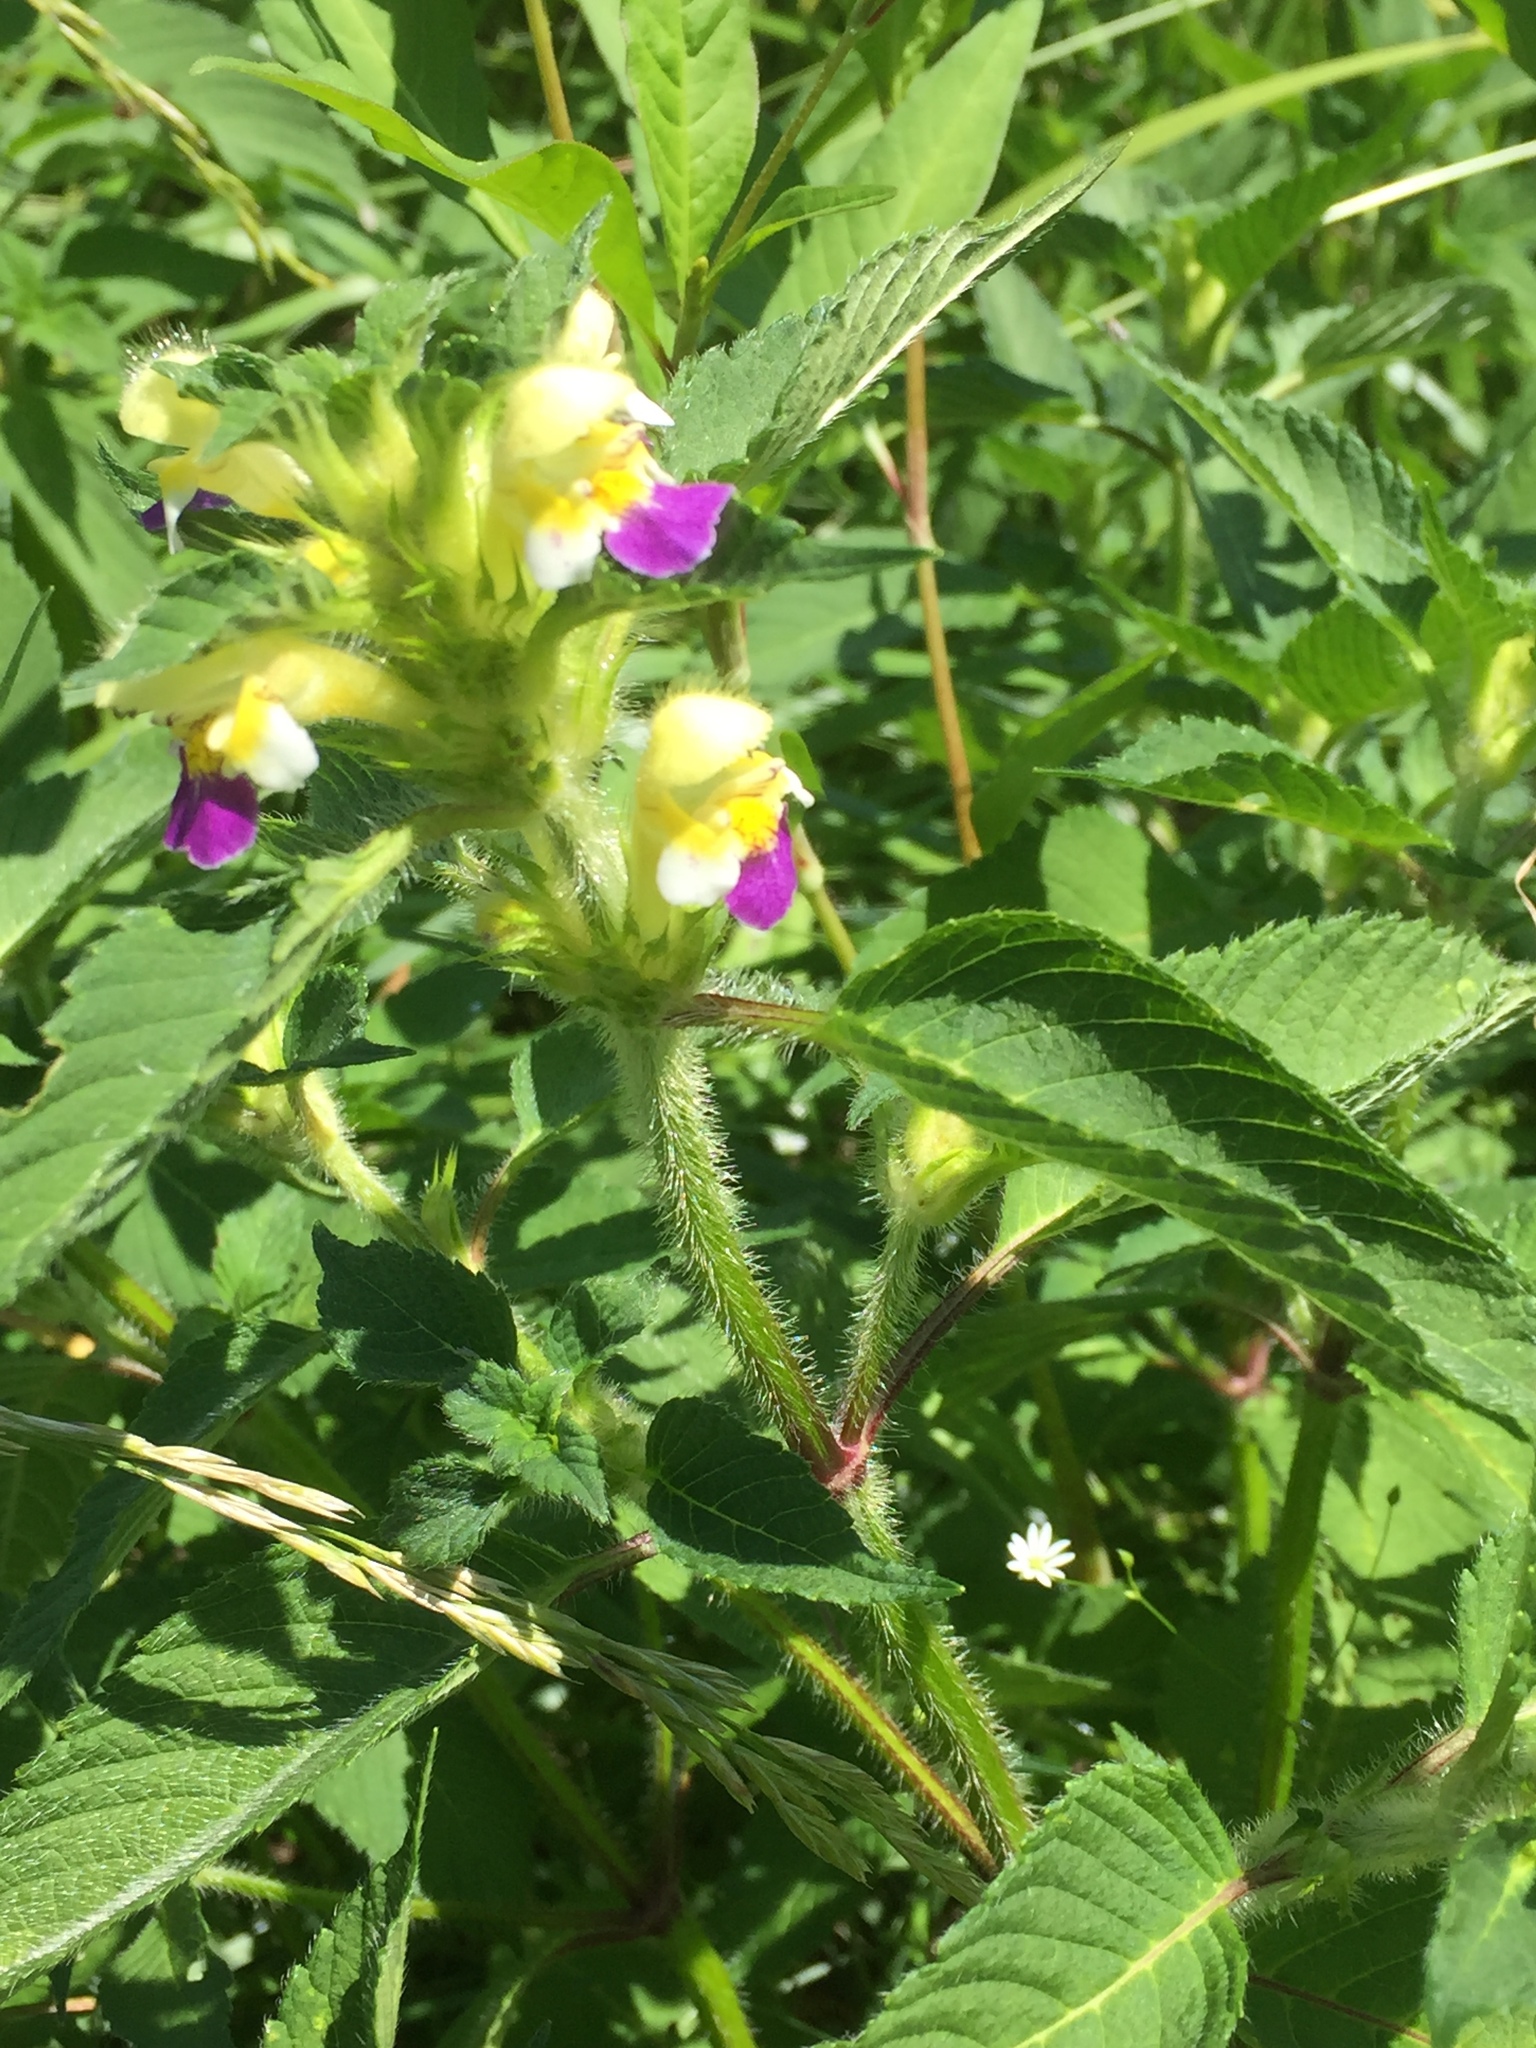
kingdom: Plantae
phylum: Tracheophyta
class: Magnoliopsida
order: Lamiales
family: Lamiaceae
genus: Galeopsis
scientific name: Galeopsis speciosa
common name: Large-flowered hemp-nettle
